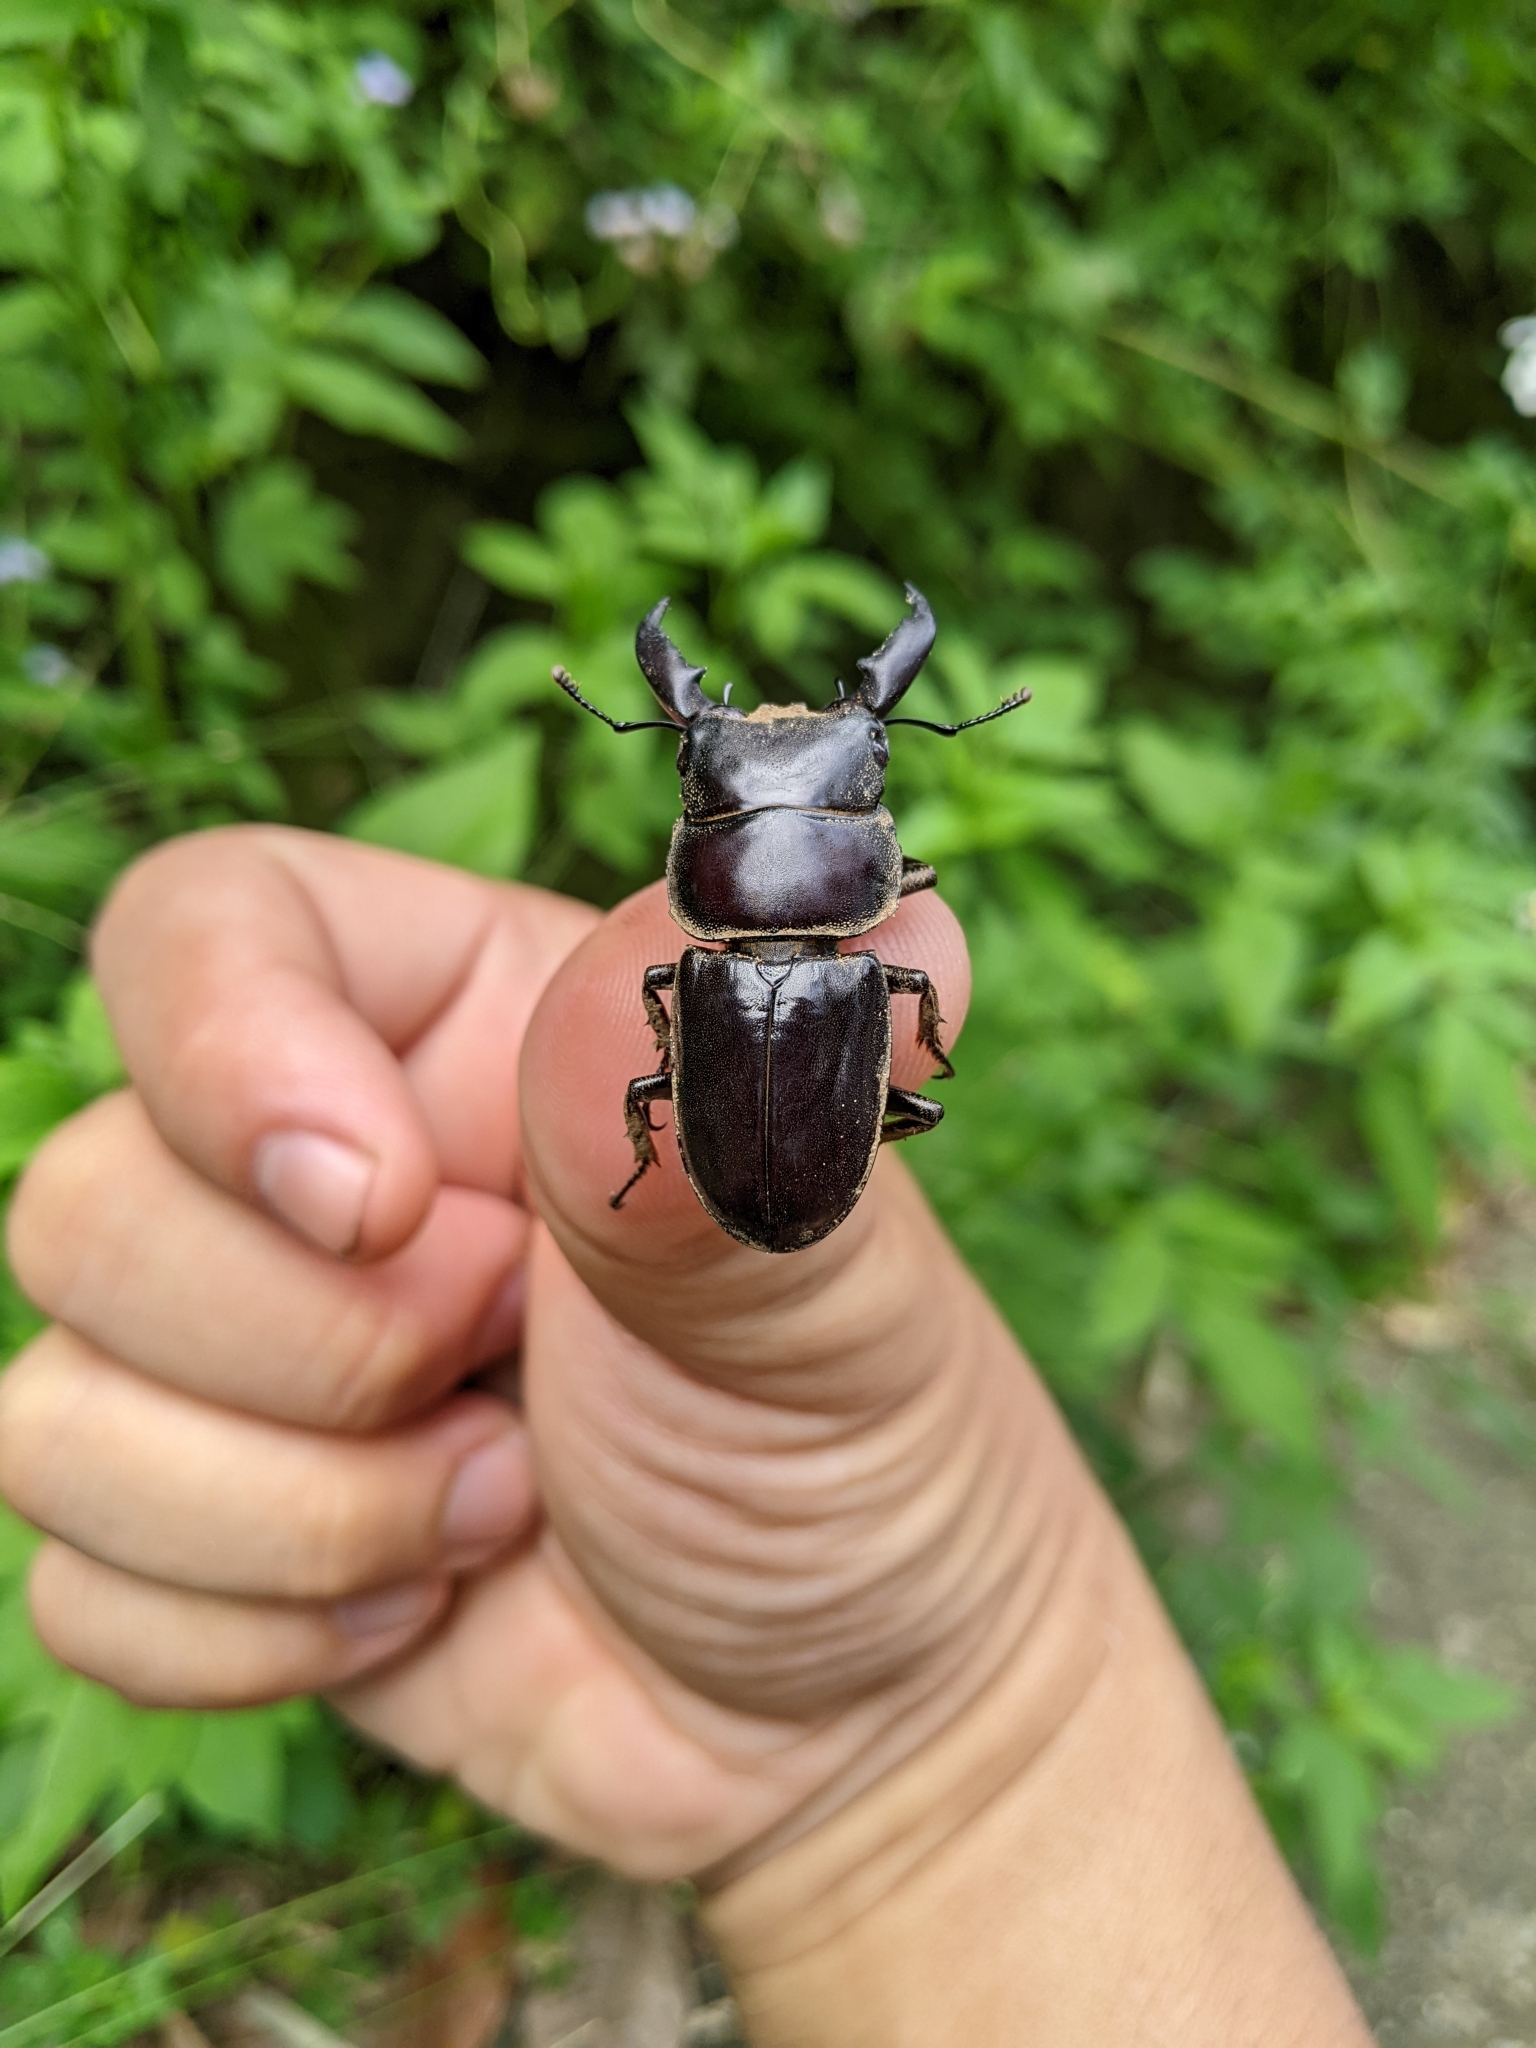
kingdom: Animalia
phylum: Arthropoda
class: Insecta
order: Coleoptera
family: Lucanidae
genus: Serrognathus
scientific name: Serrognathus titanus
